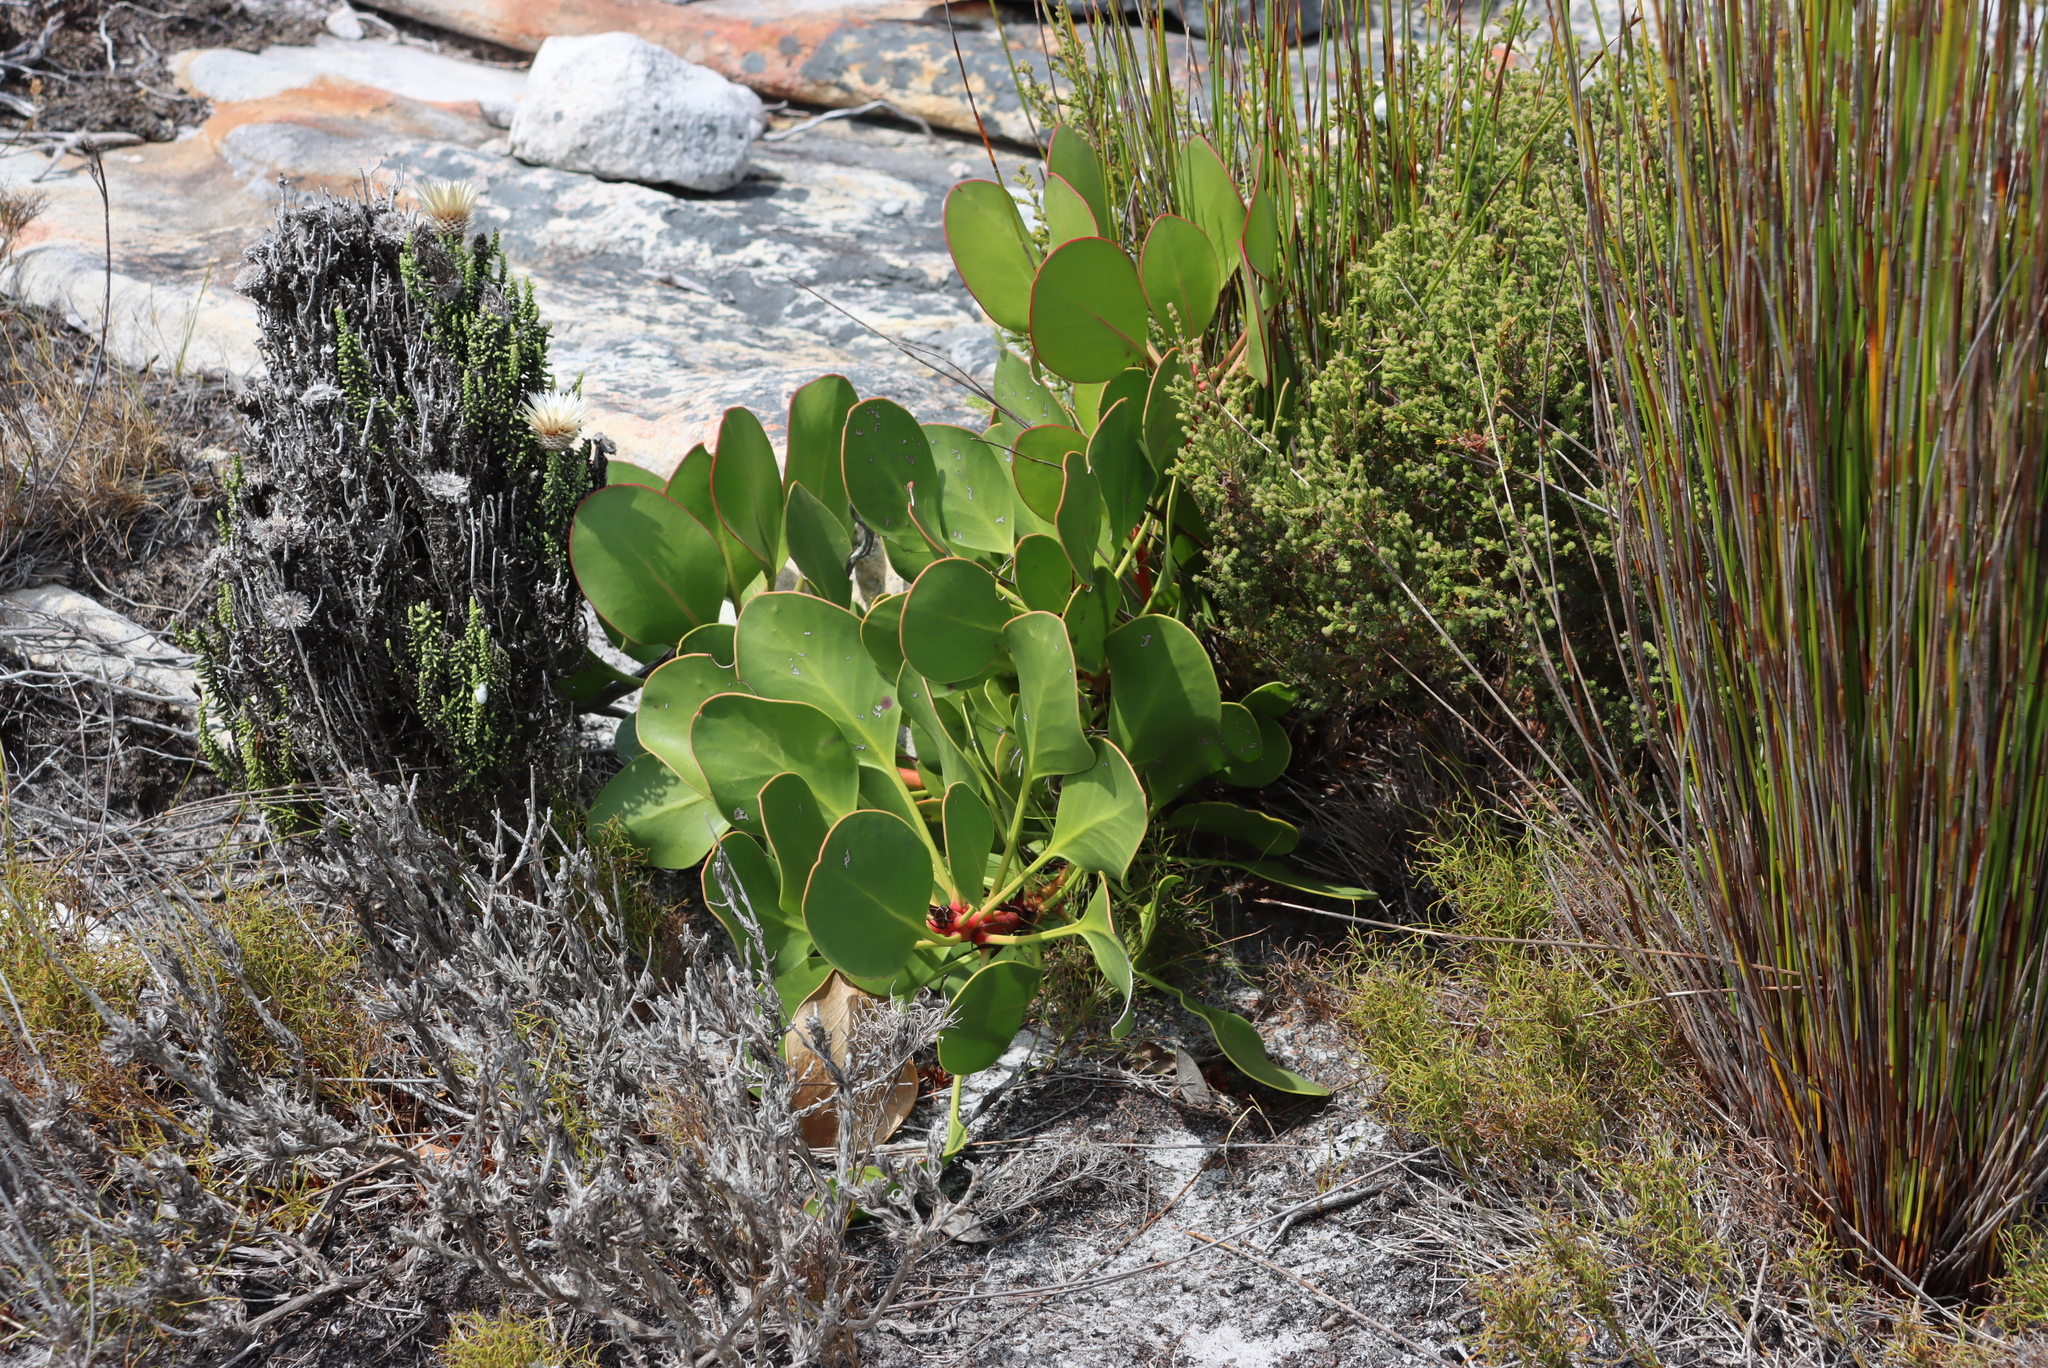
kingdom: Plantae
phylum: Tracheophyta
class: Magnoliopsida
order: Proteales
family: Proteaceae
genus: Protea
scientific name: Protea cynaroides
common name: King protea
